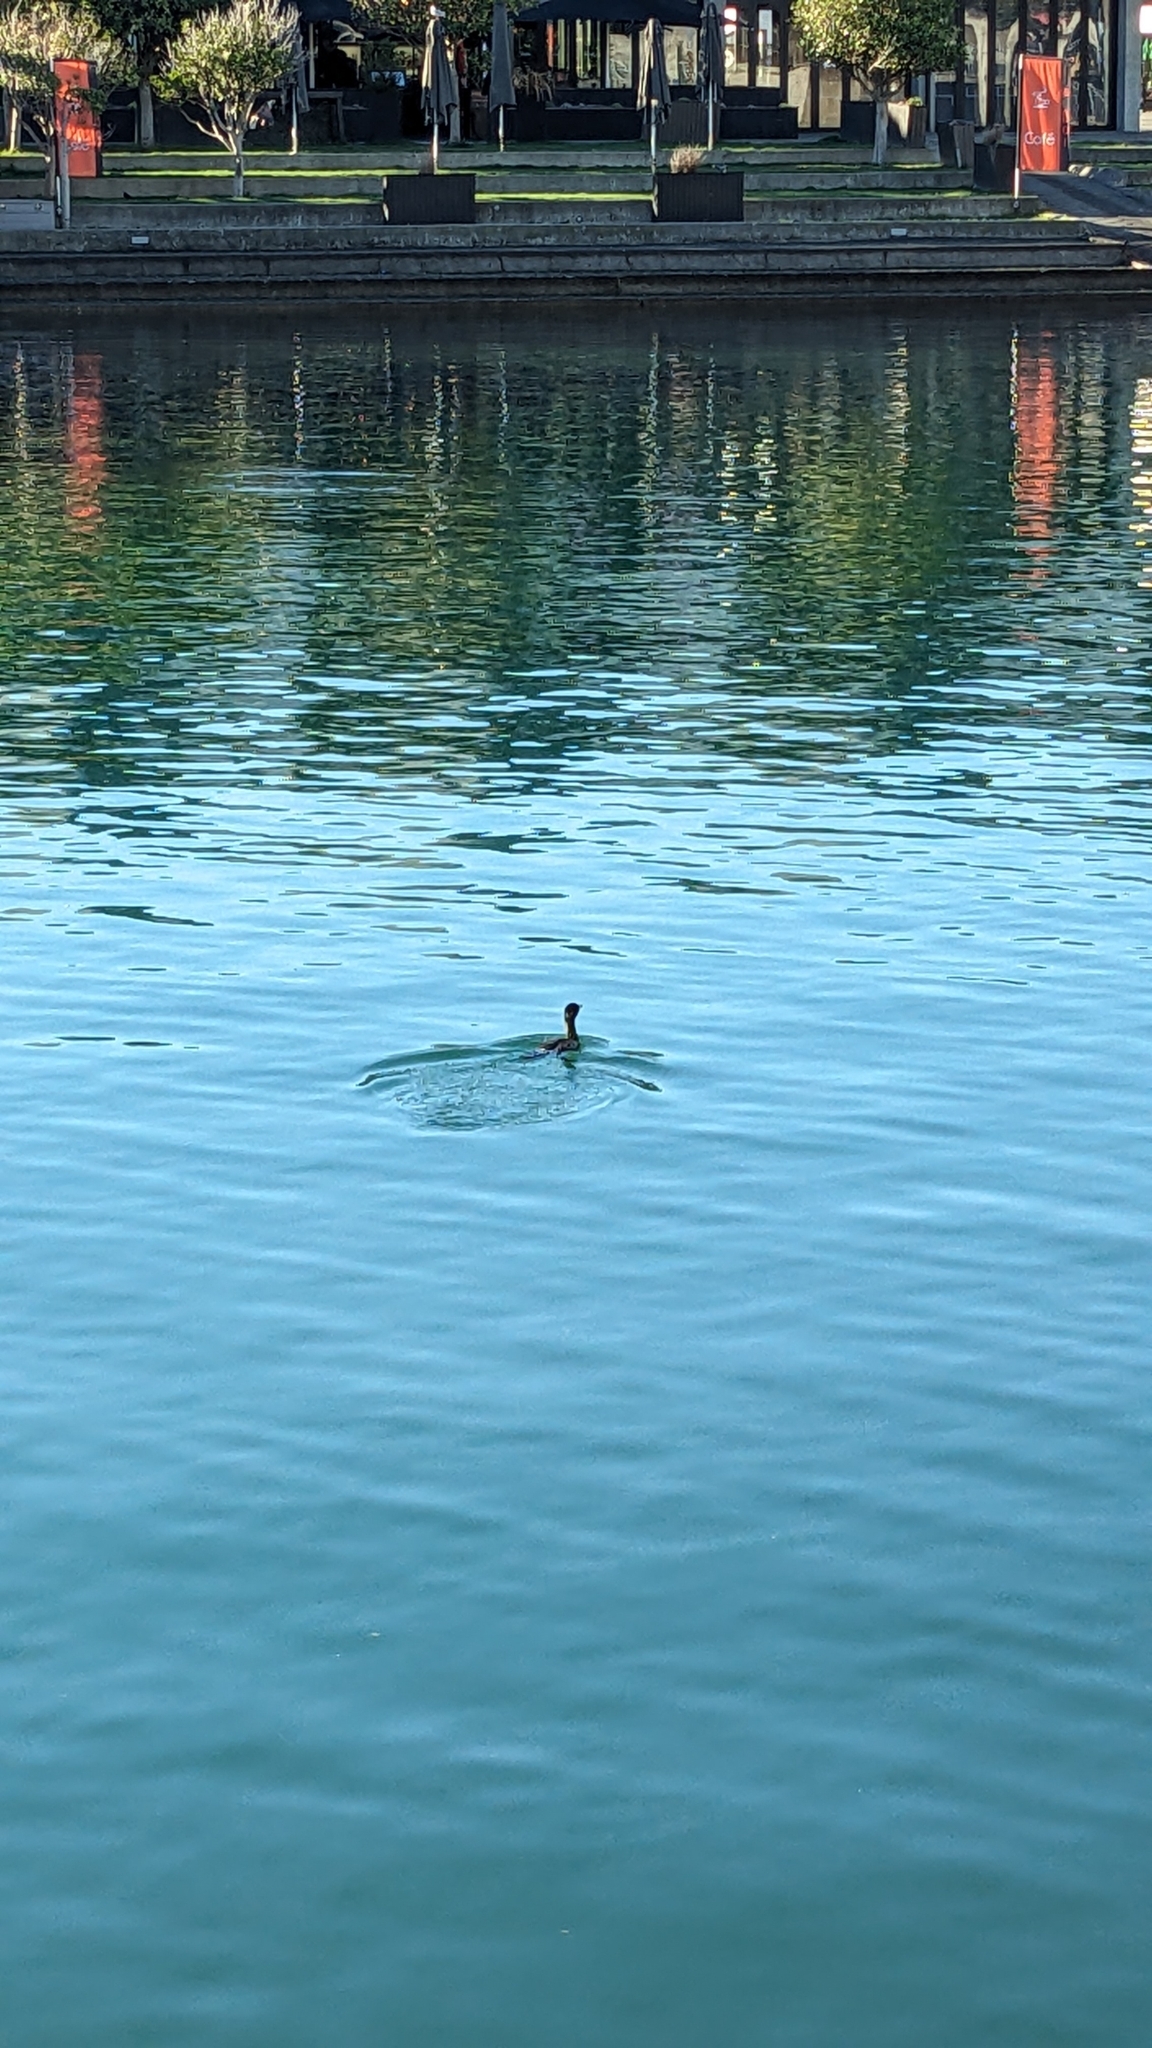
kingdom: Animalia
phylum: Chordata
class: Aves
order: Suliformes
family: Phalacrocoracidae
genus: Phalacrocorax
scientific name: Phalacrocorax sulcirostris
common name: Little black cormorant
